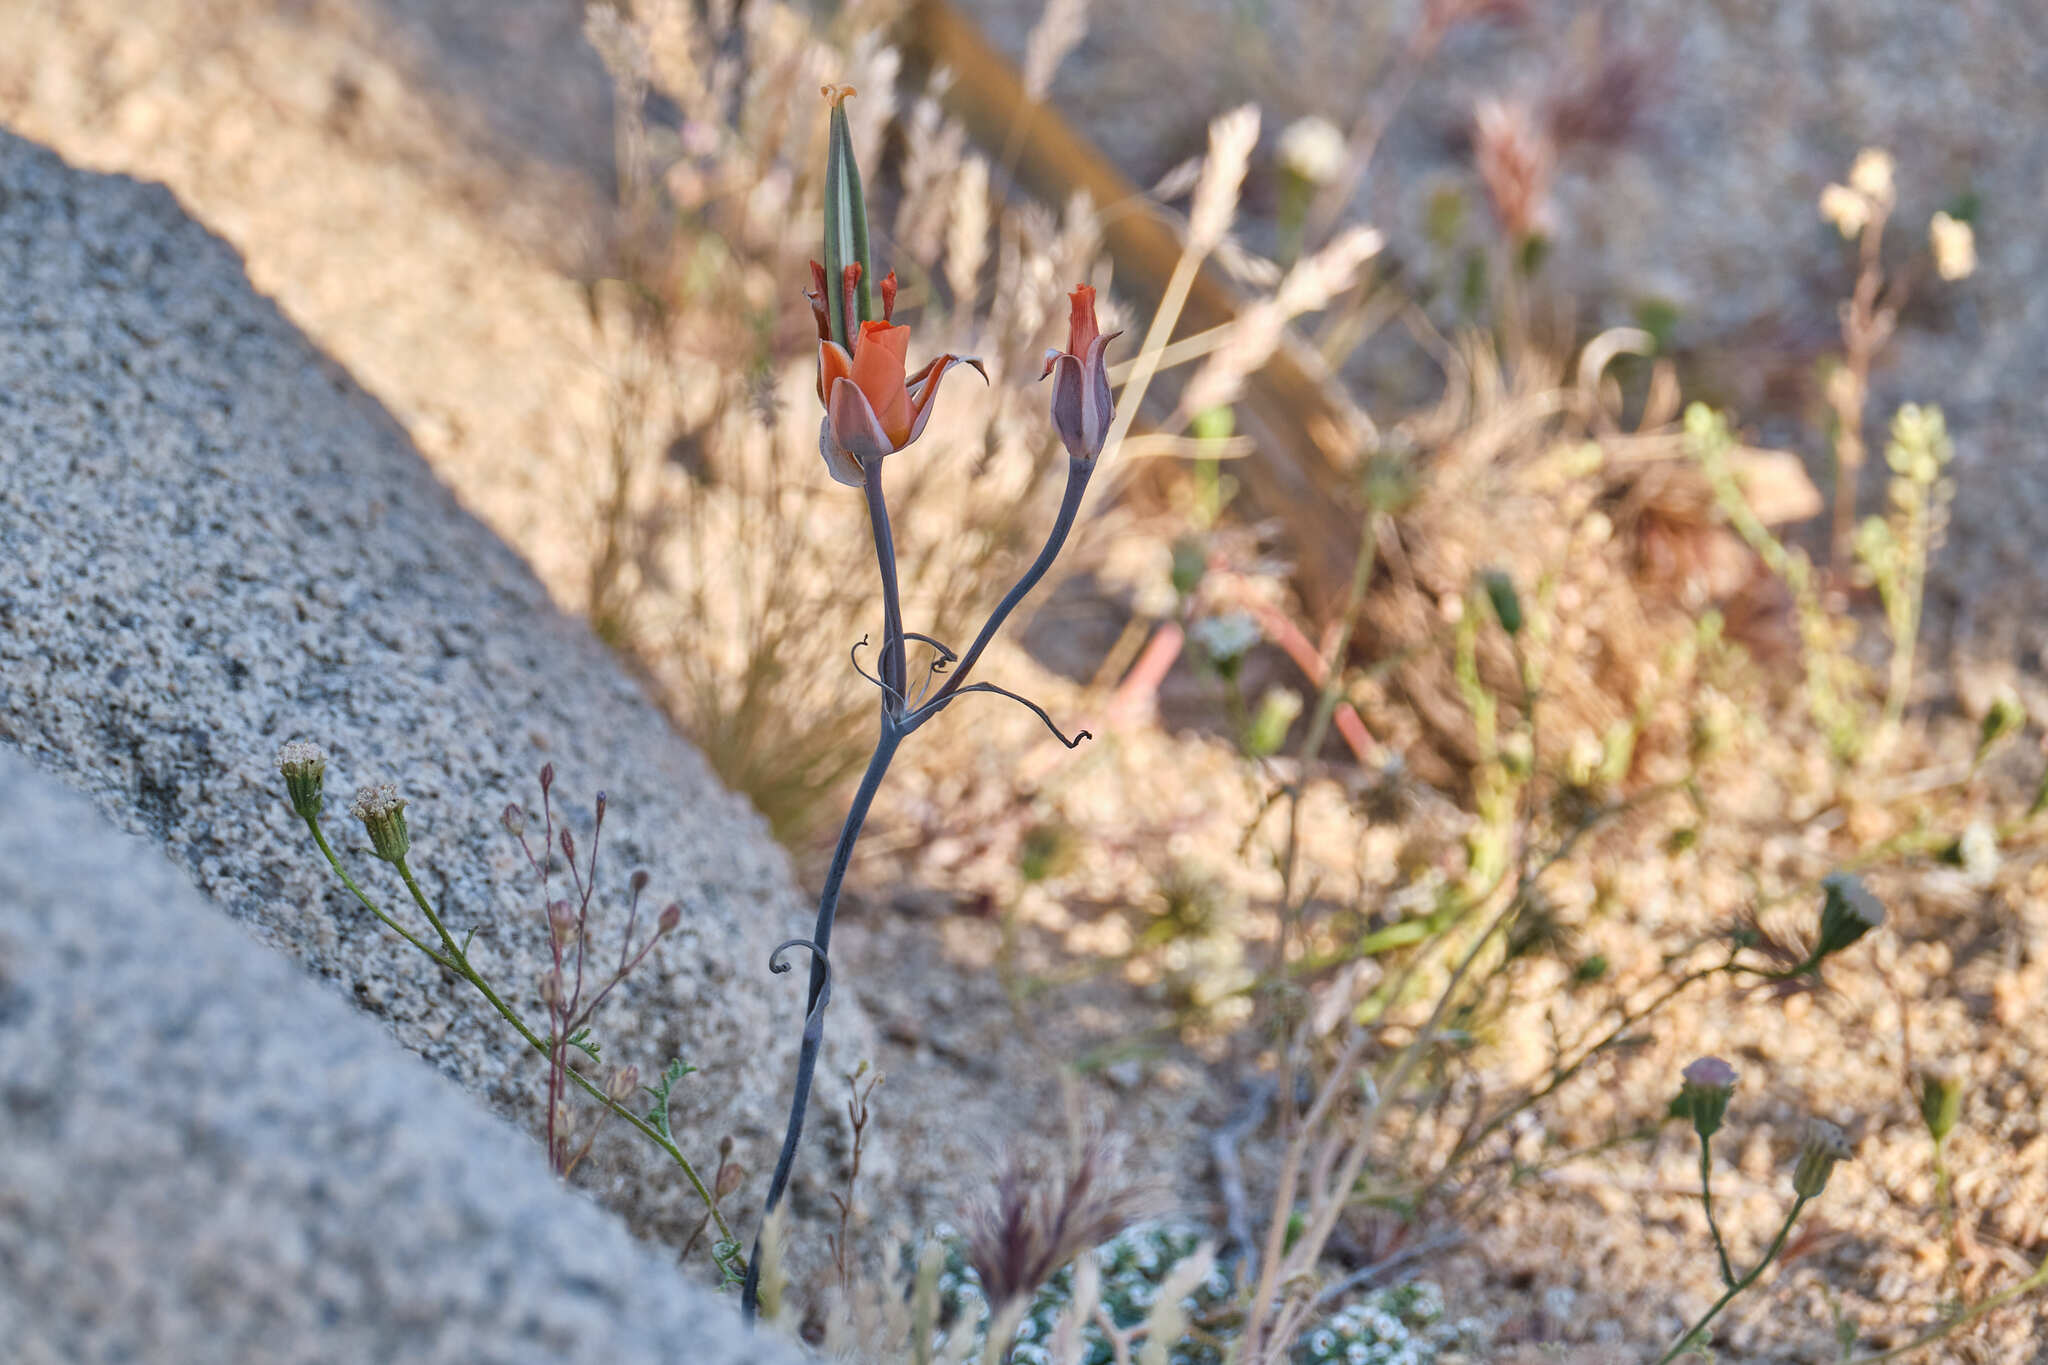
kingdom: Plantae
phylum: Tracheophyta
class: Liliopsida
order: Liliales
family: Liliaceae
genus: Calochortus
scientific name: Calochortus kennedyi
